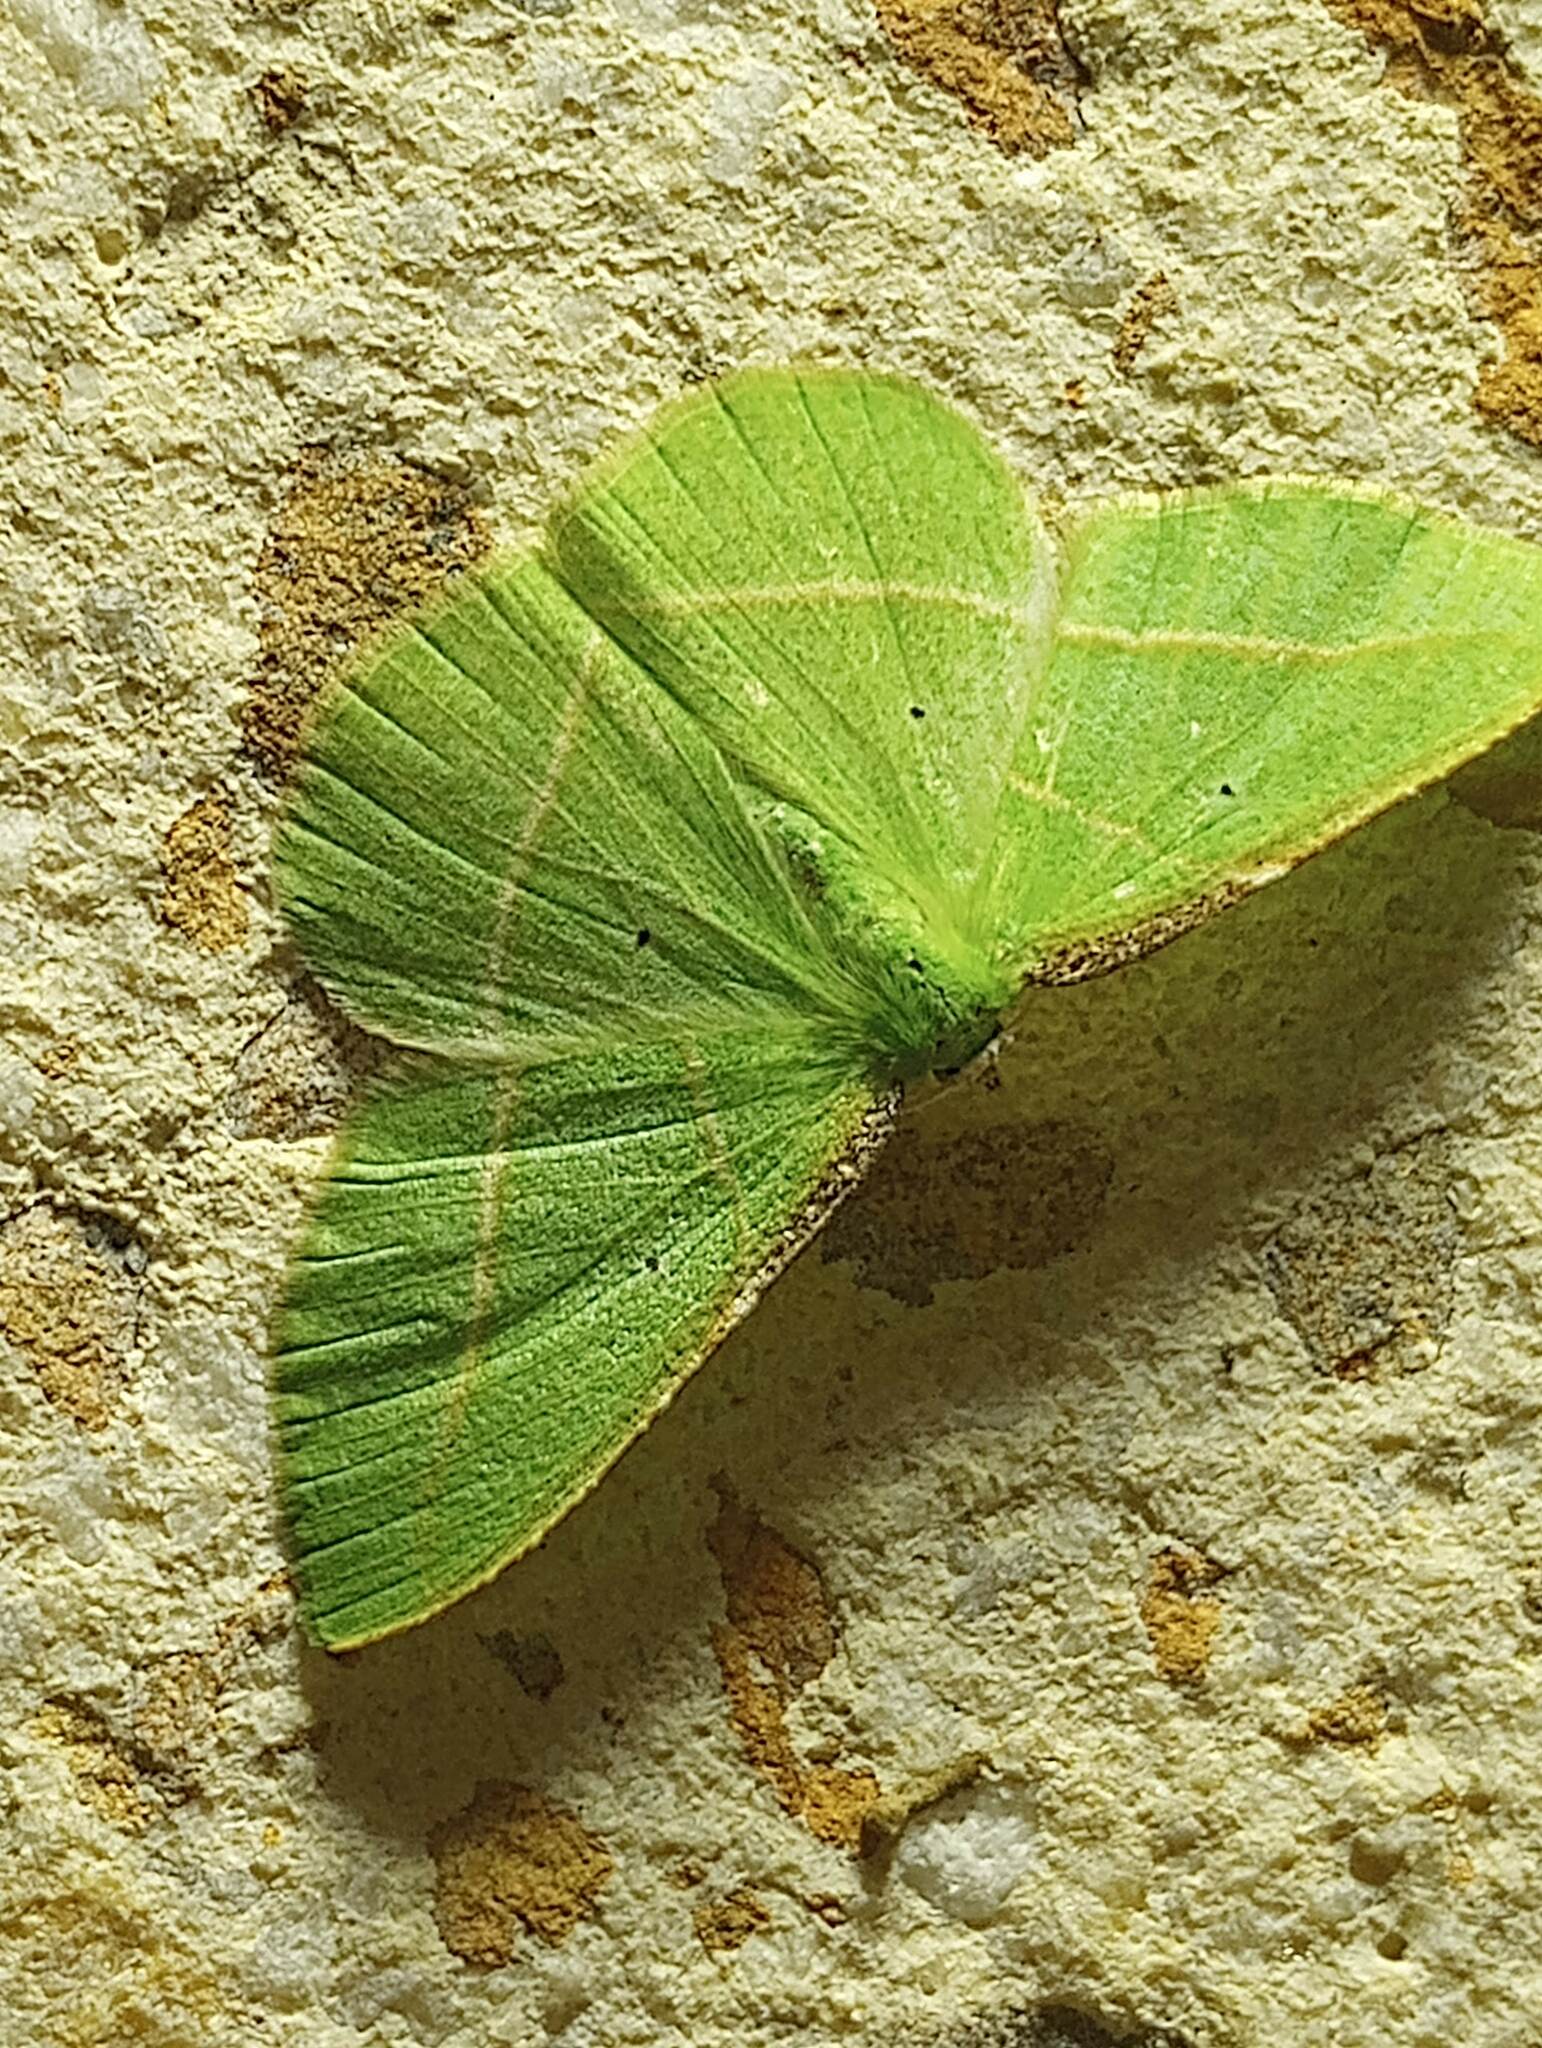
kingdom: Animalia
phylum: Arthropoda
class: Insecta
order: Lepidoptera
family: Geometridae
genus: Dichorda
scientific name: Dichorda illustraria
